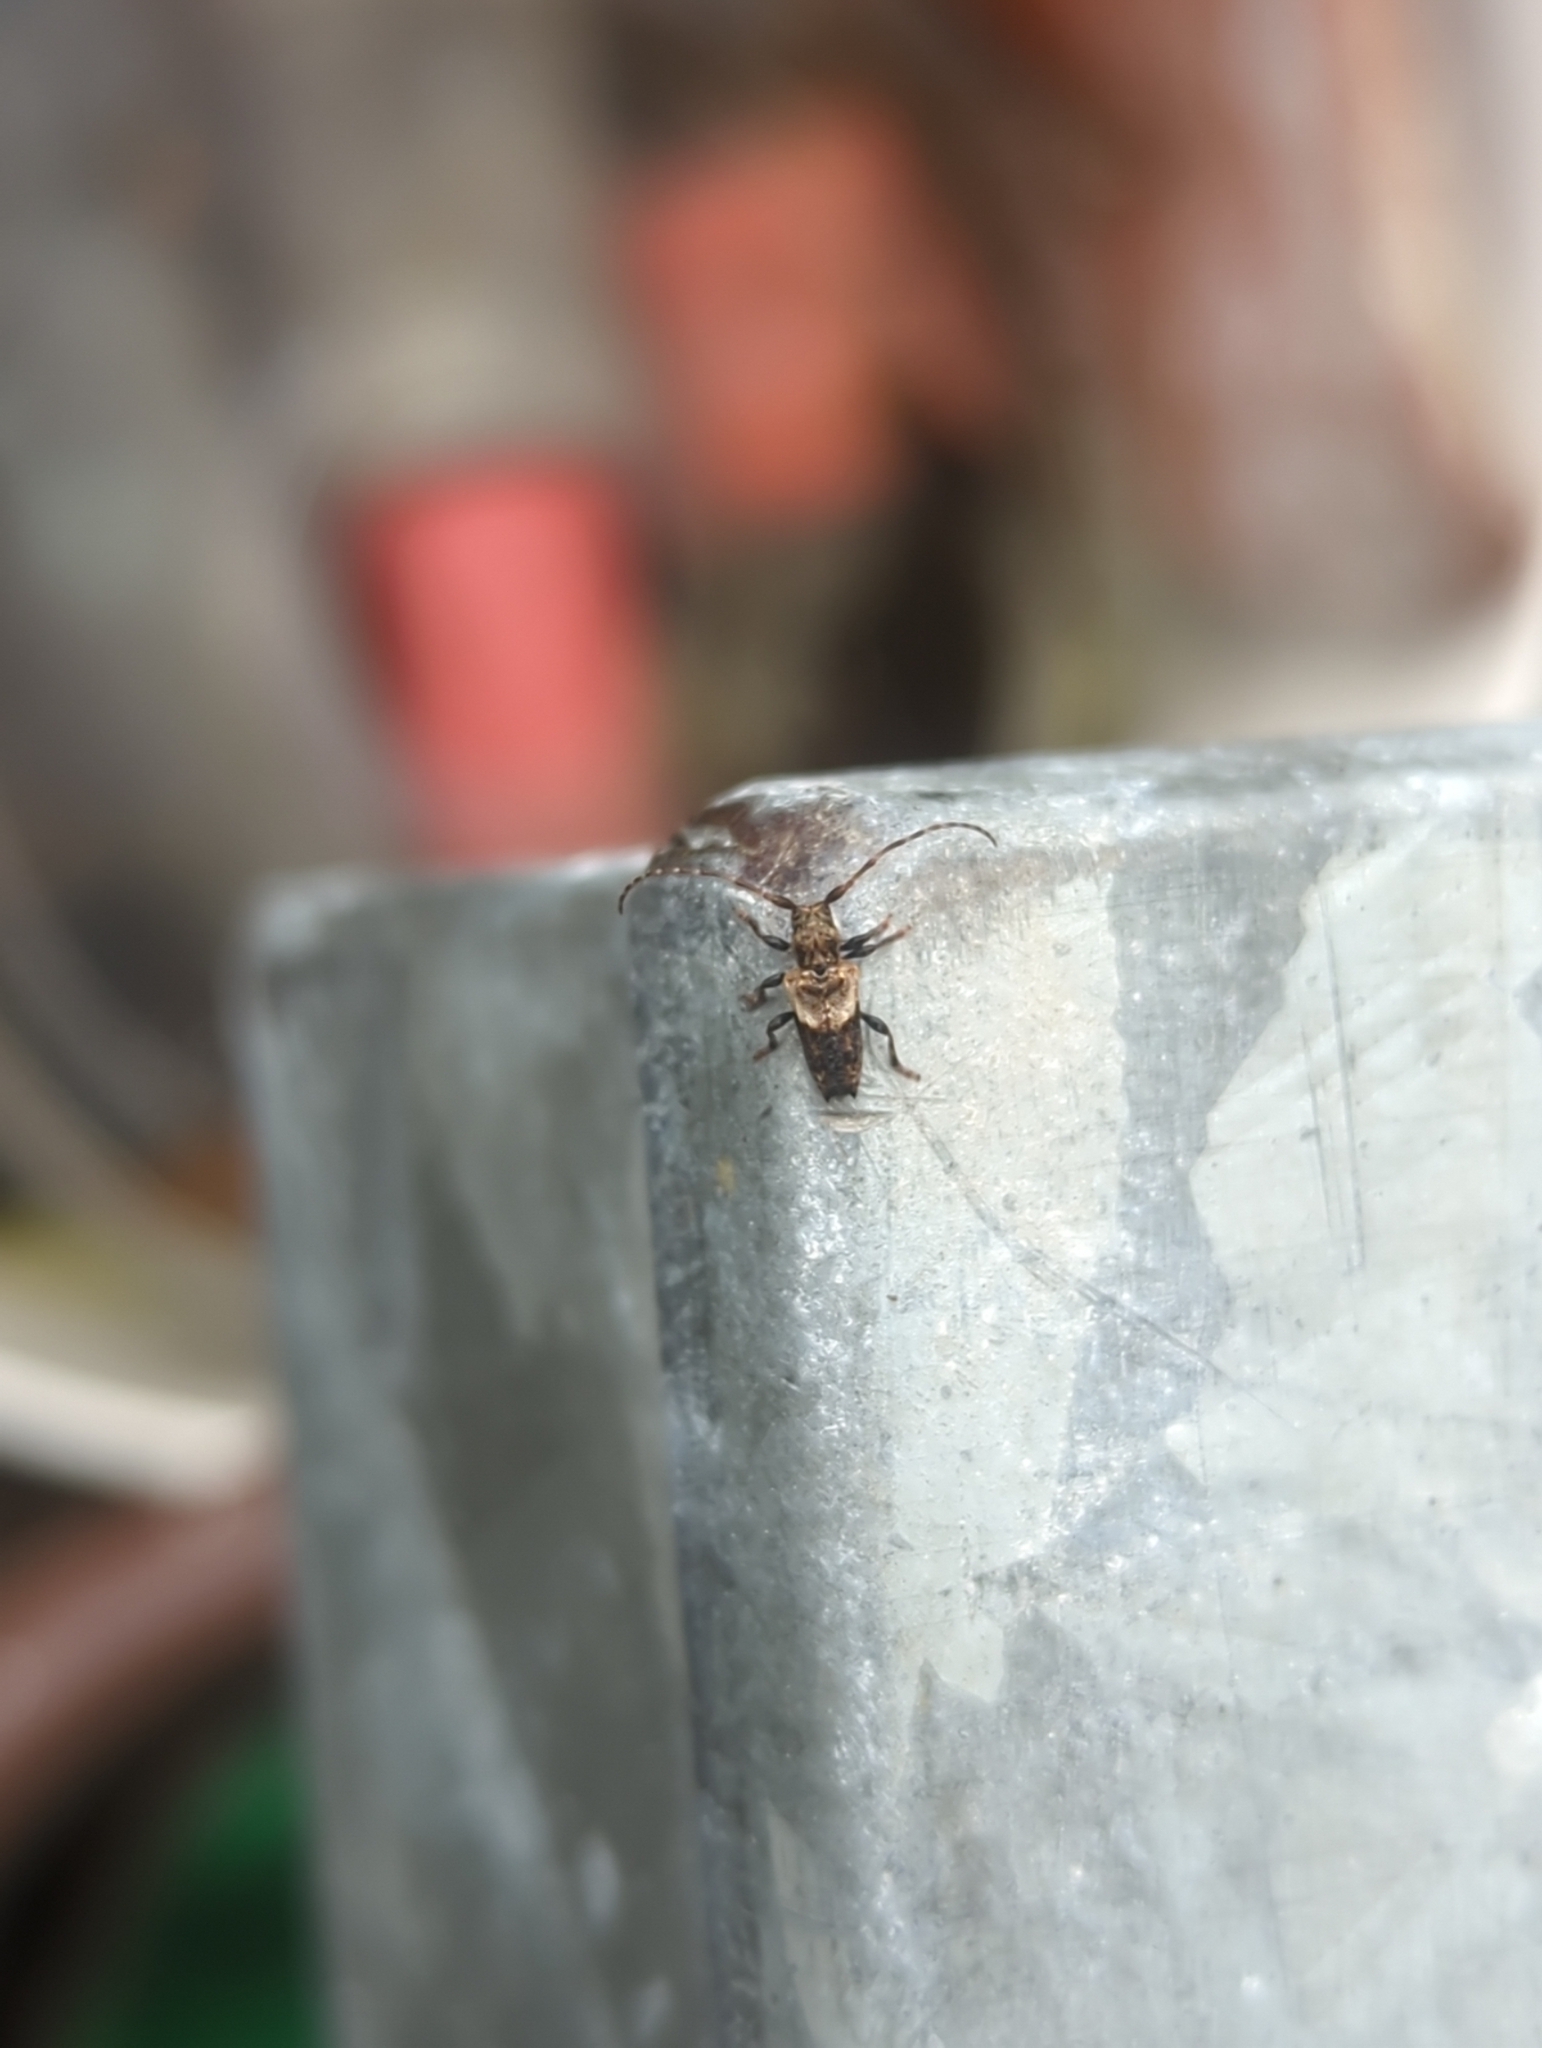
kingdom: Animalia
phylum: Arthropoda
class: Insecta
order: Coleoptera
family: Cerambycidae
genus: Pogonocherus
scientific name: Pogonocherus hispidus
